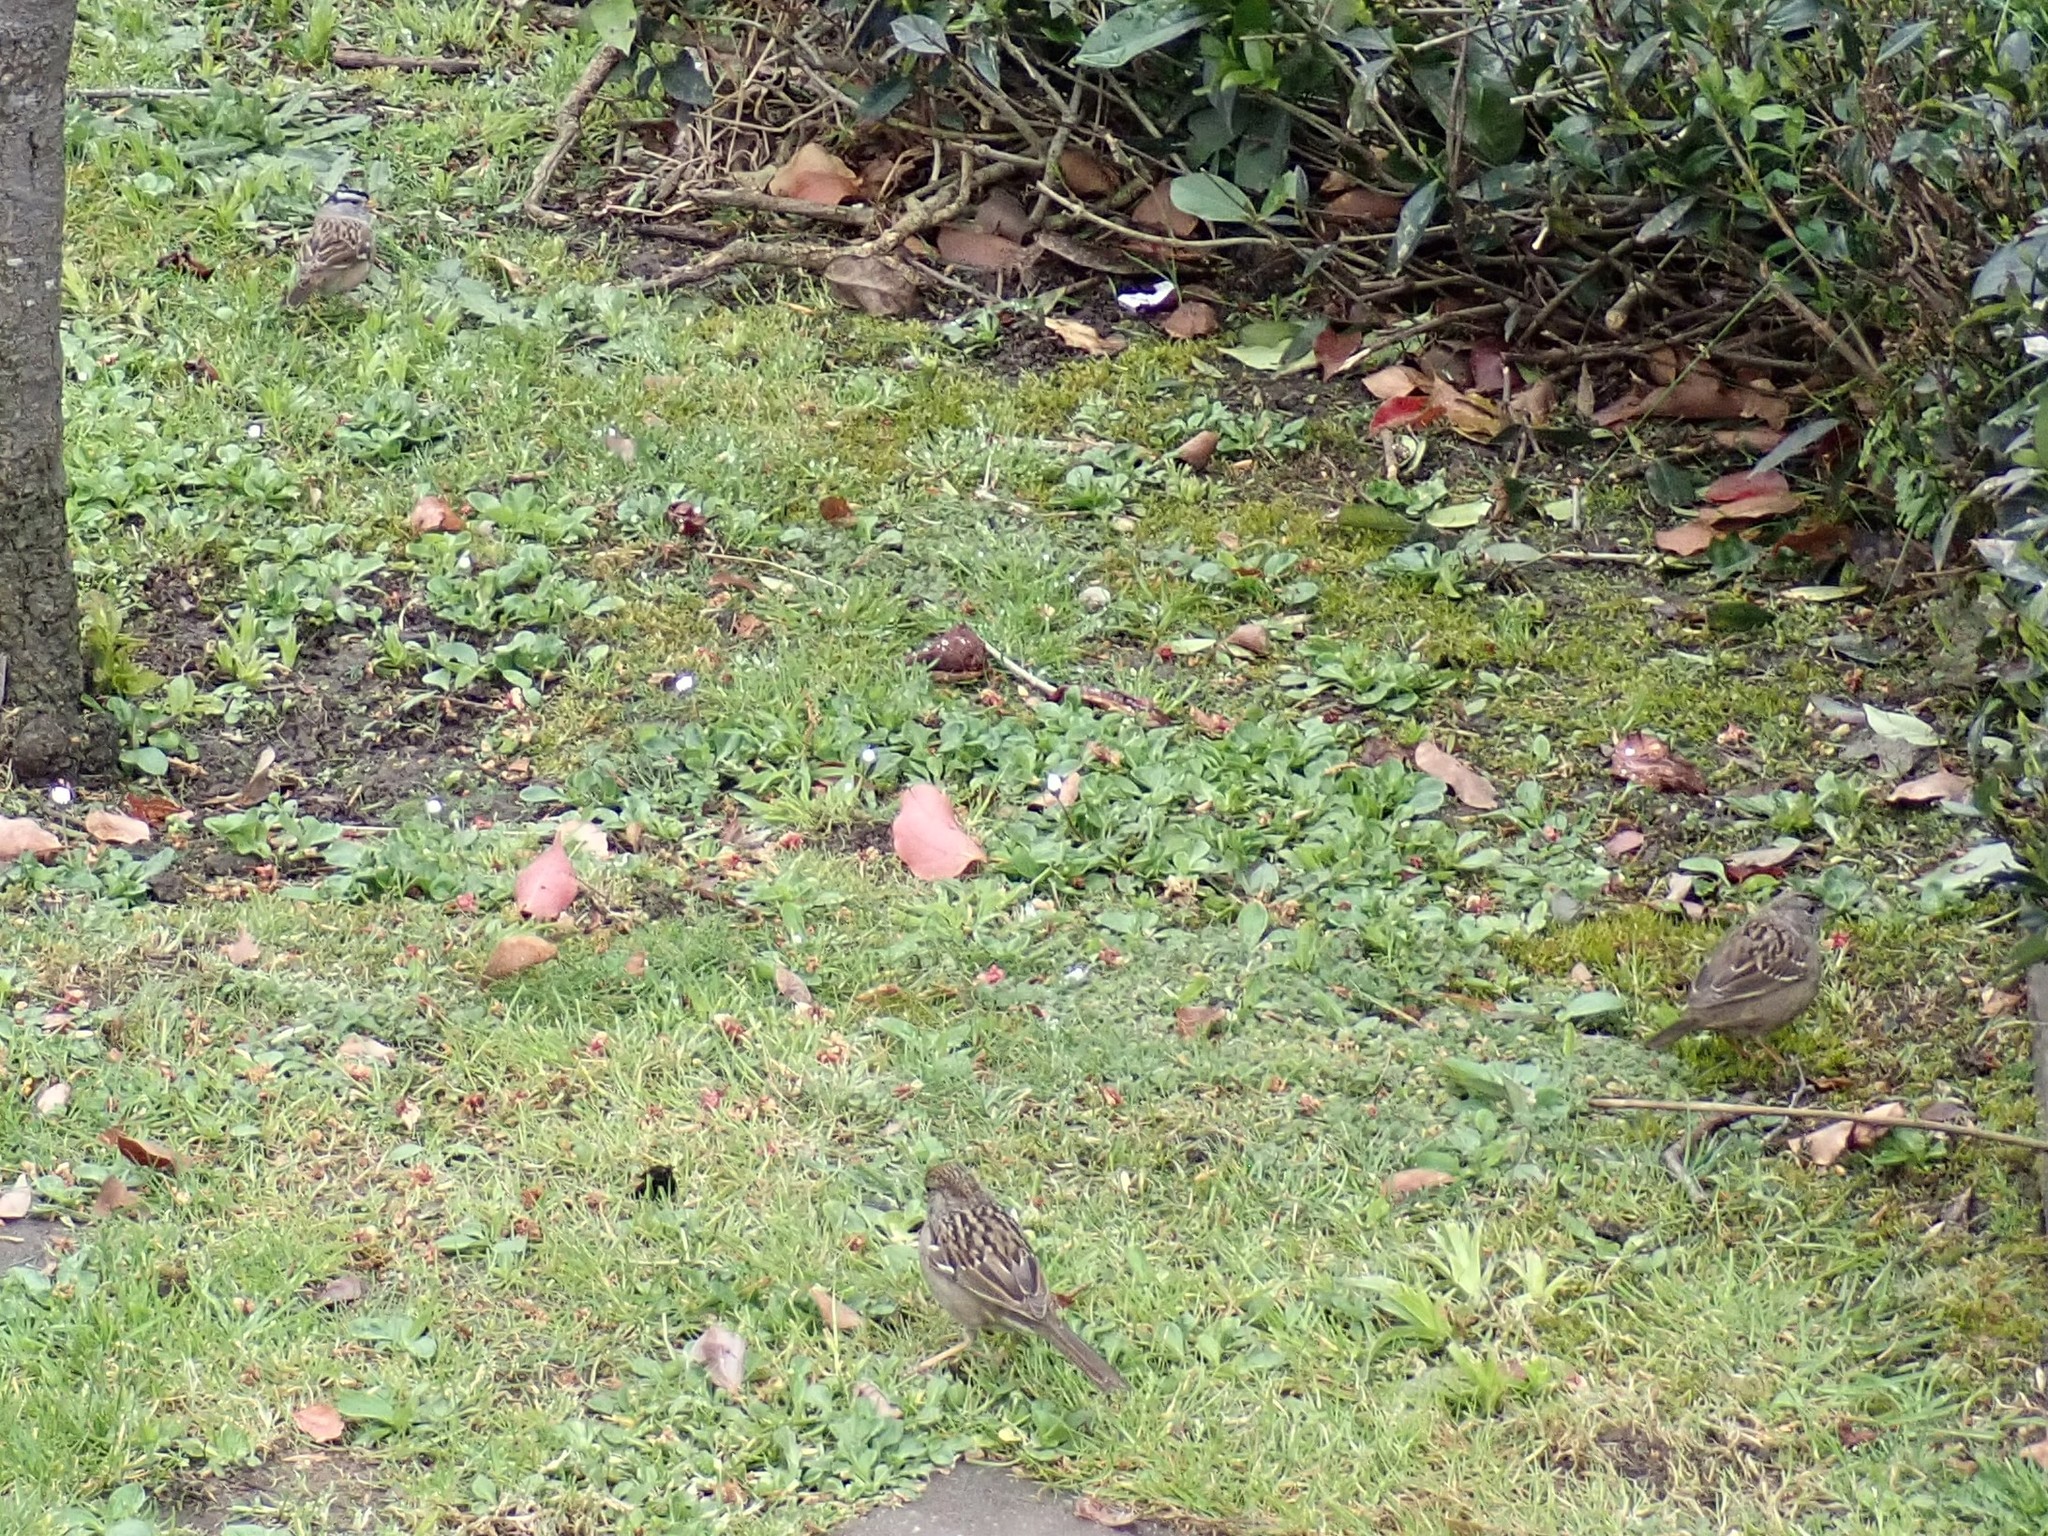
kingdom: Animalia
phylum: Chordata
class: Aves
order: Passeriformes
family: Passerellidae
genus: Zonotrichia
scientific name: Zonotrichia leucophrys
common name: White-crowned sparrow
